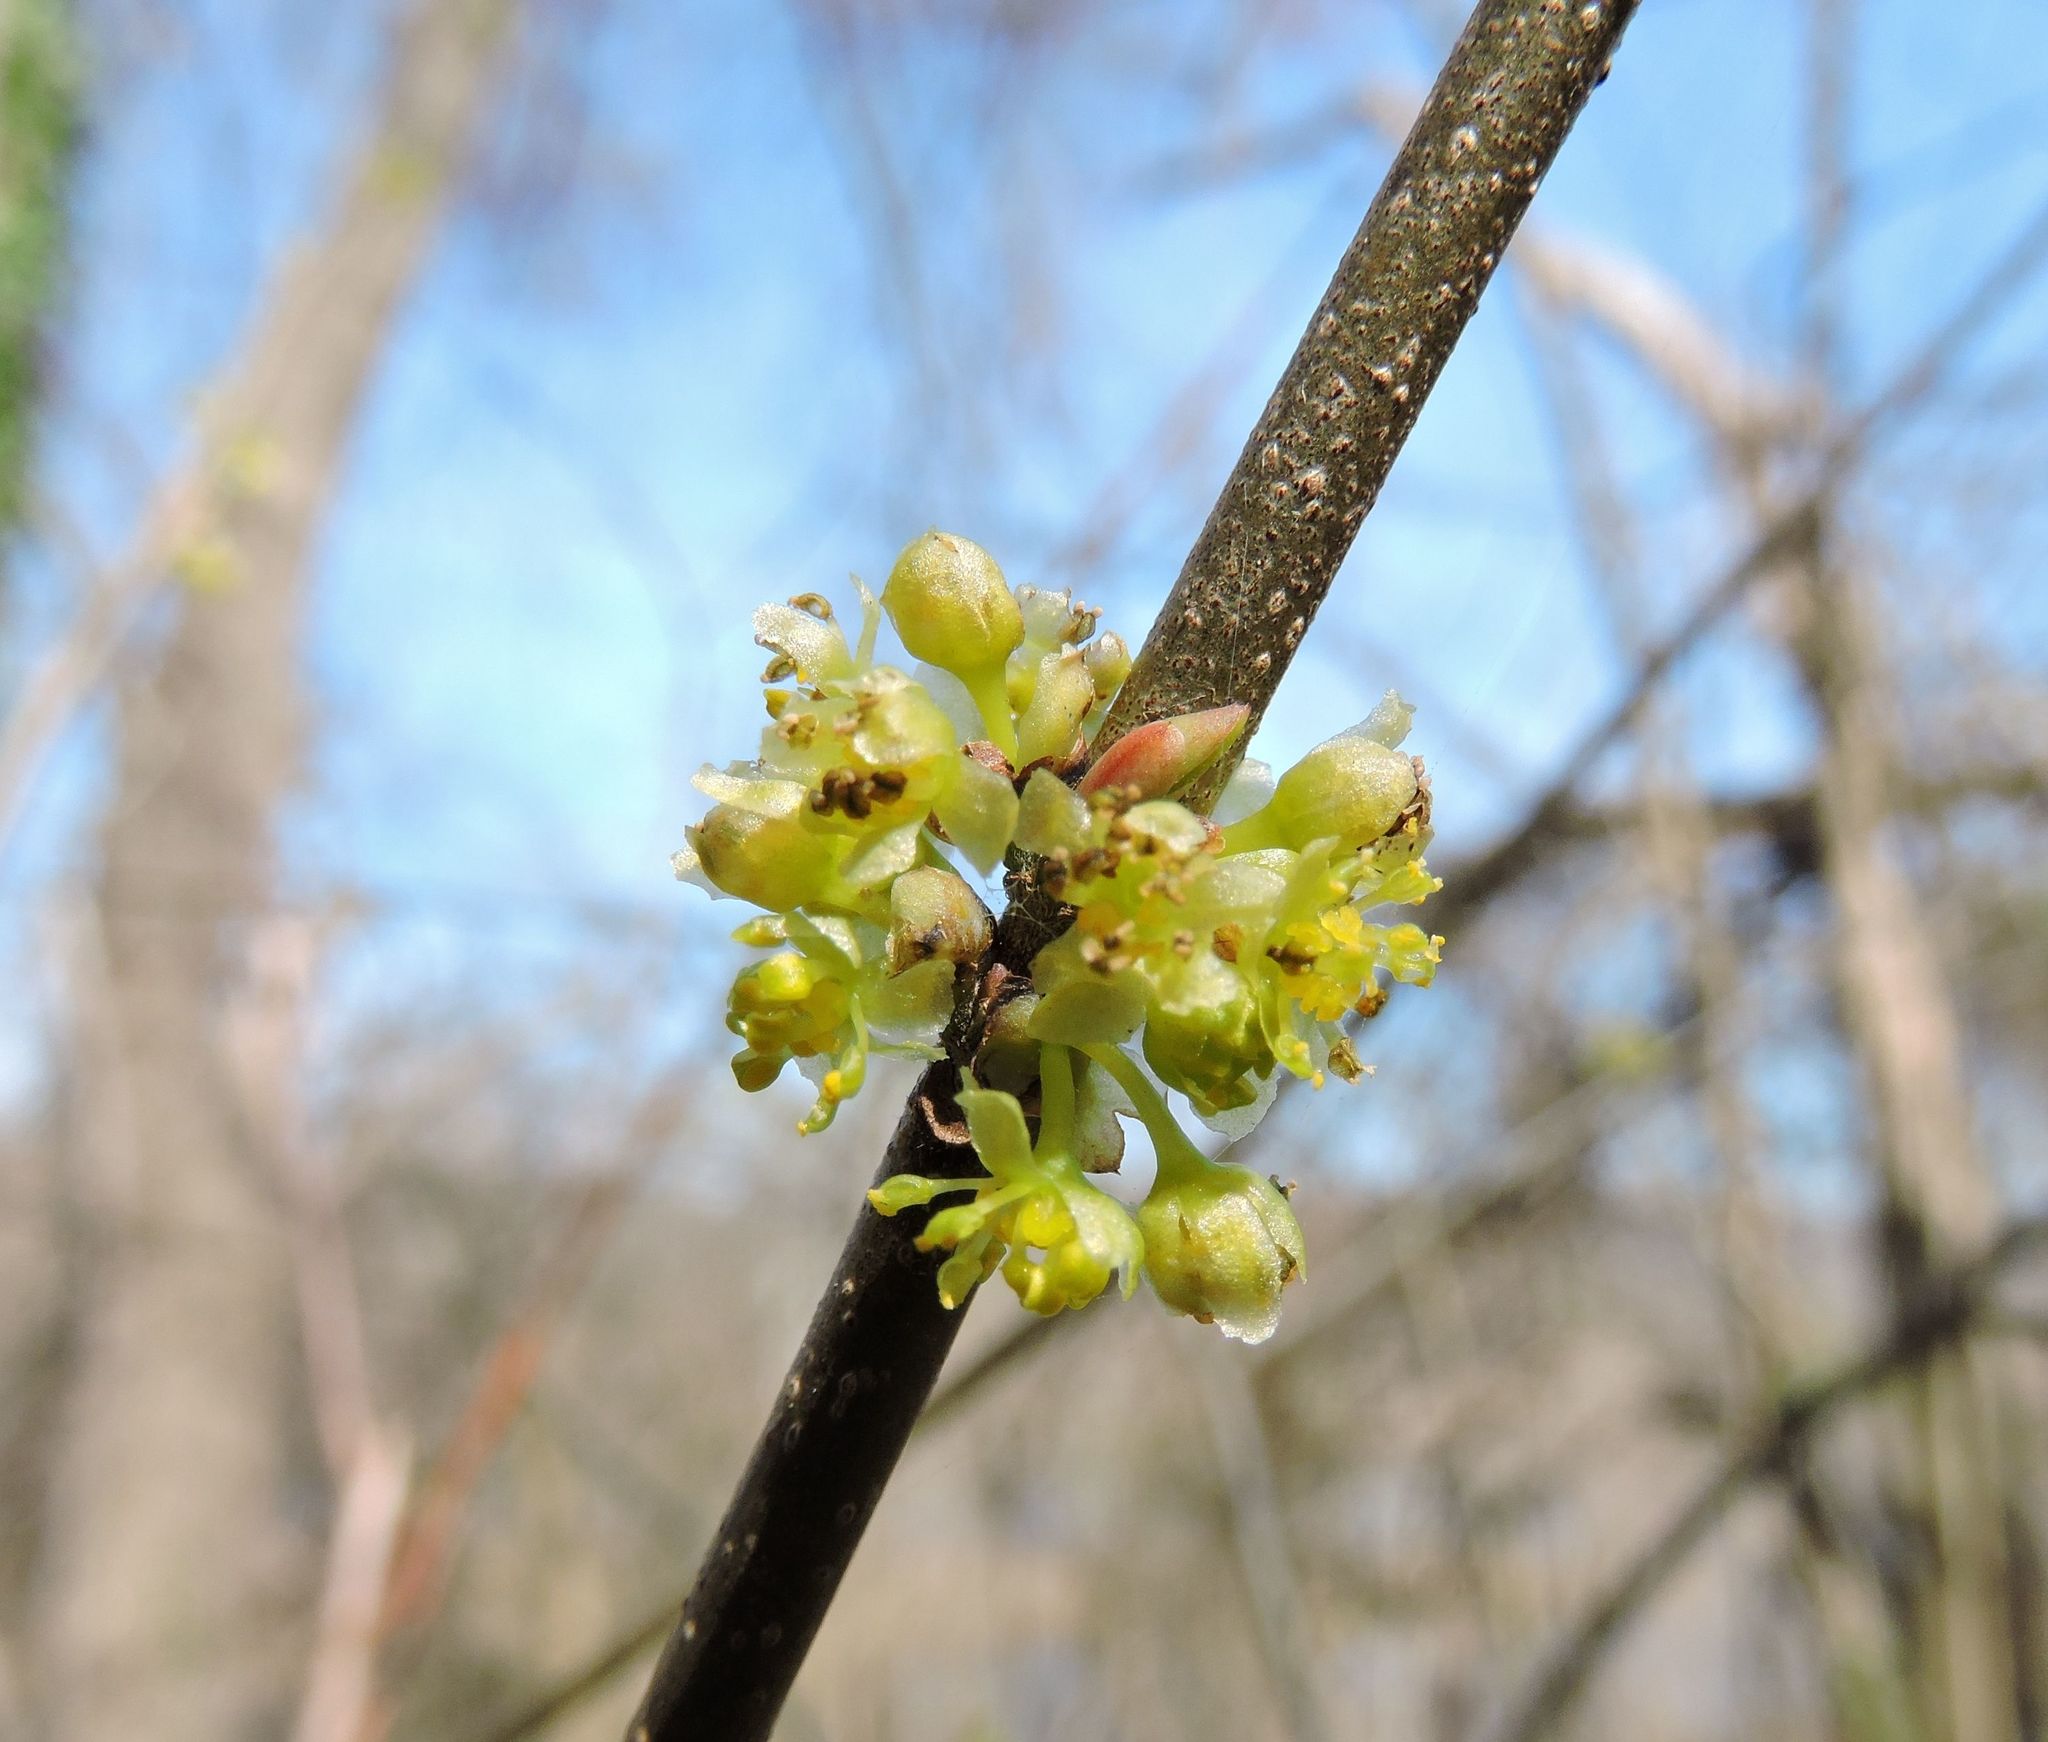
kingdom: Plantae
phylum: Tracheophyta
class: Magnoliopsida
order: Laurales
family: Lauraceae
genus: Lindera
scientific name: Lindera benzoin
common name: Spicebush
